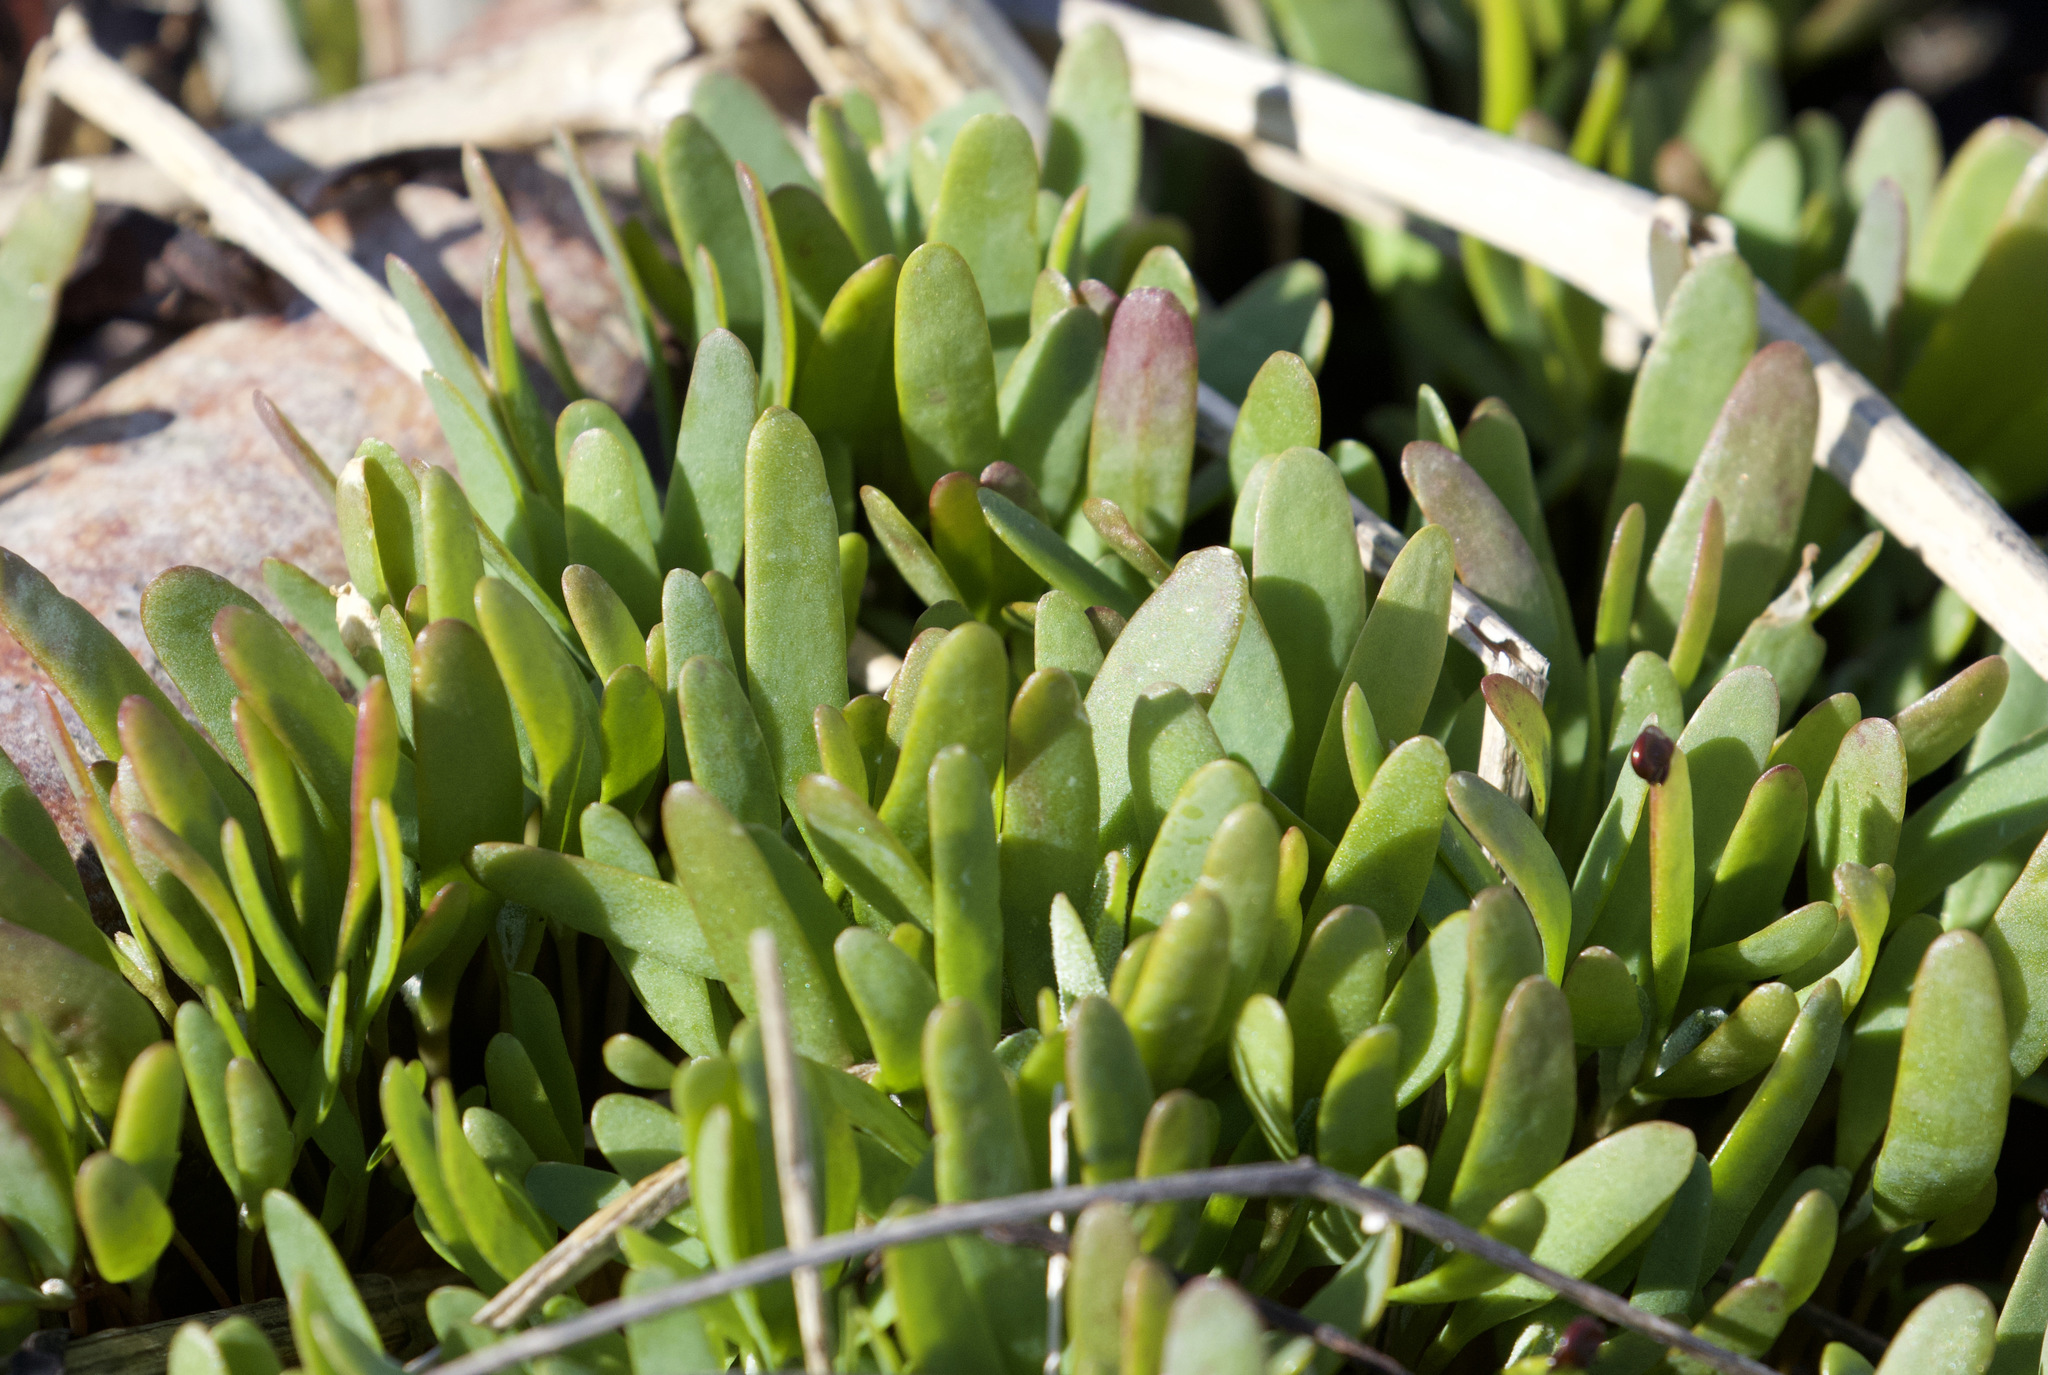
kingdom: Plantae
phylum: Tracheophyta
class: Magnoliopsida
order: Asterales
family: Asteraceae
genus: Tripolium
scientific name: Tripolium pannonicum
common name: Sea aster
